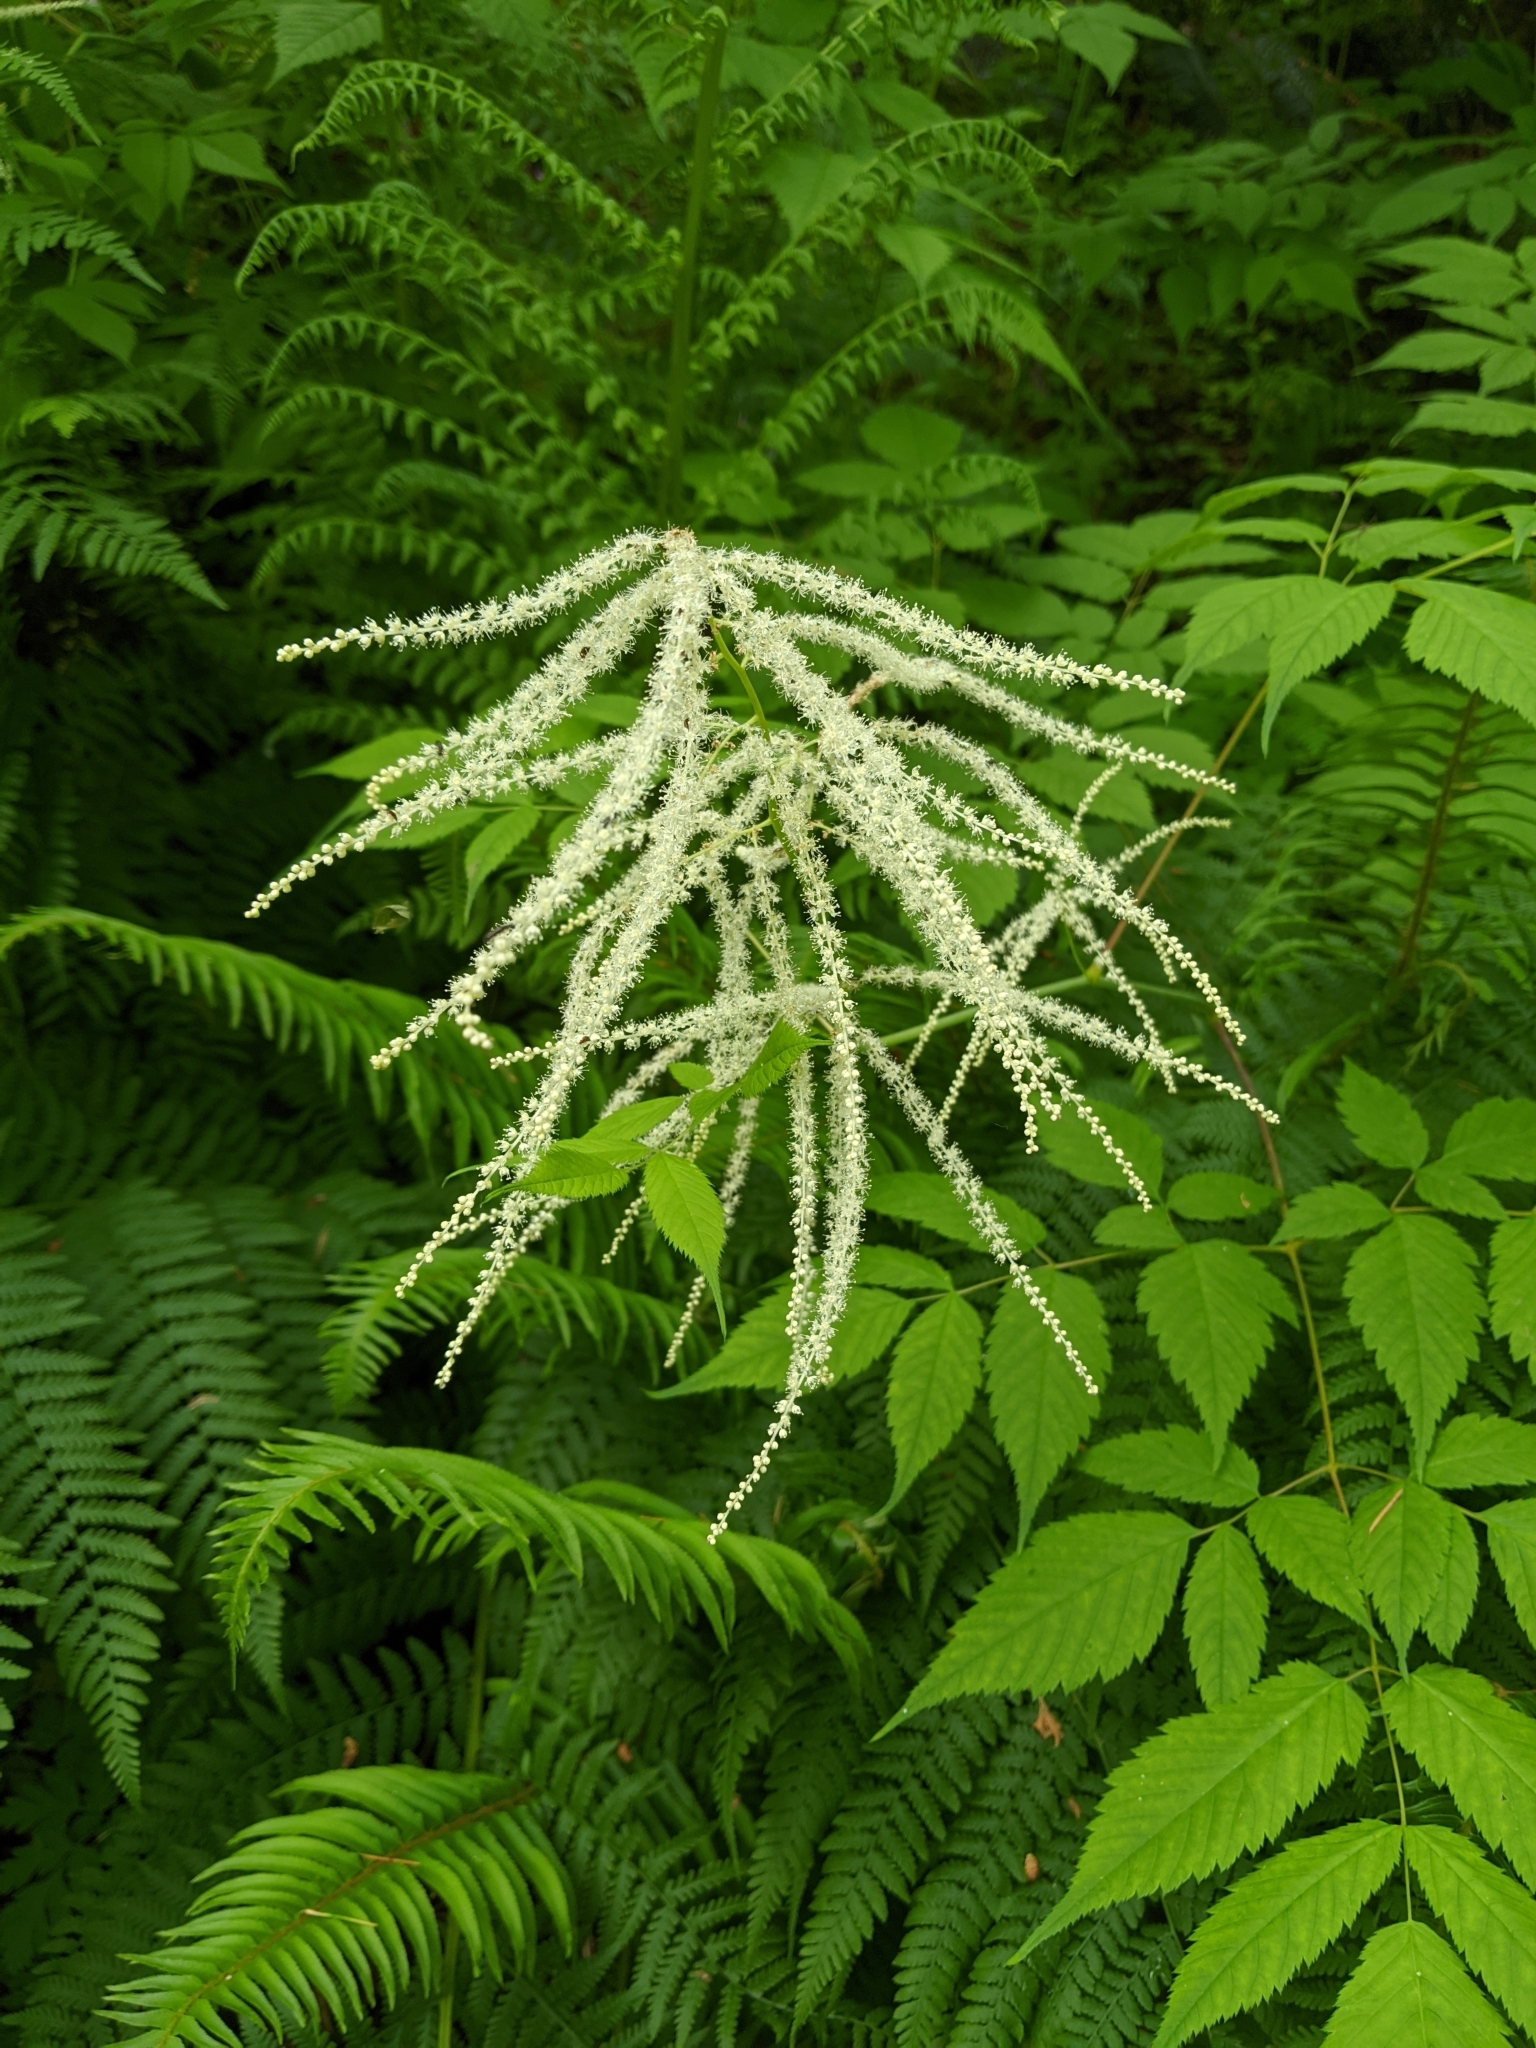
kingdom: Plantae
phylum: Tracheophyta
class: Magnoliopsida
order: Rosales
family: Rosaceae
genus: Aruncus
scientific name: Aruncus dioicus
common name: Buck's-beard
